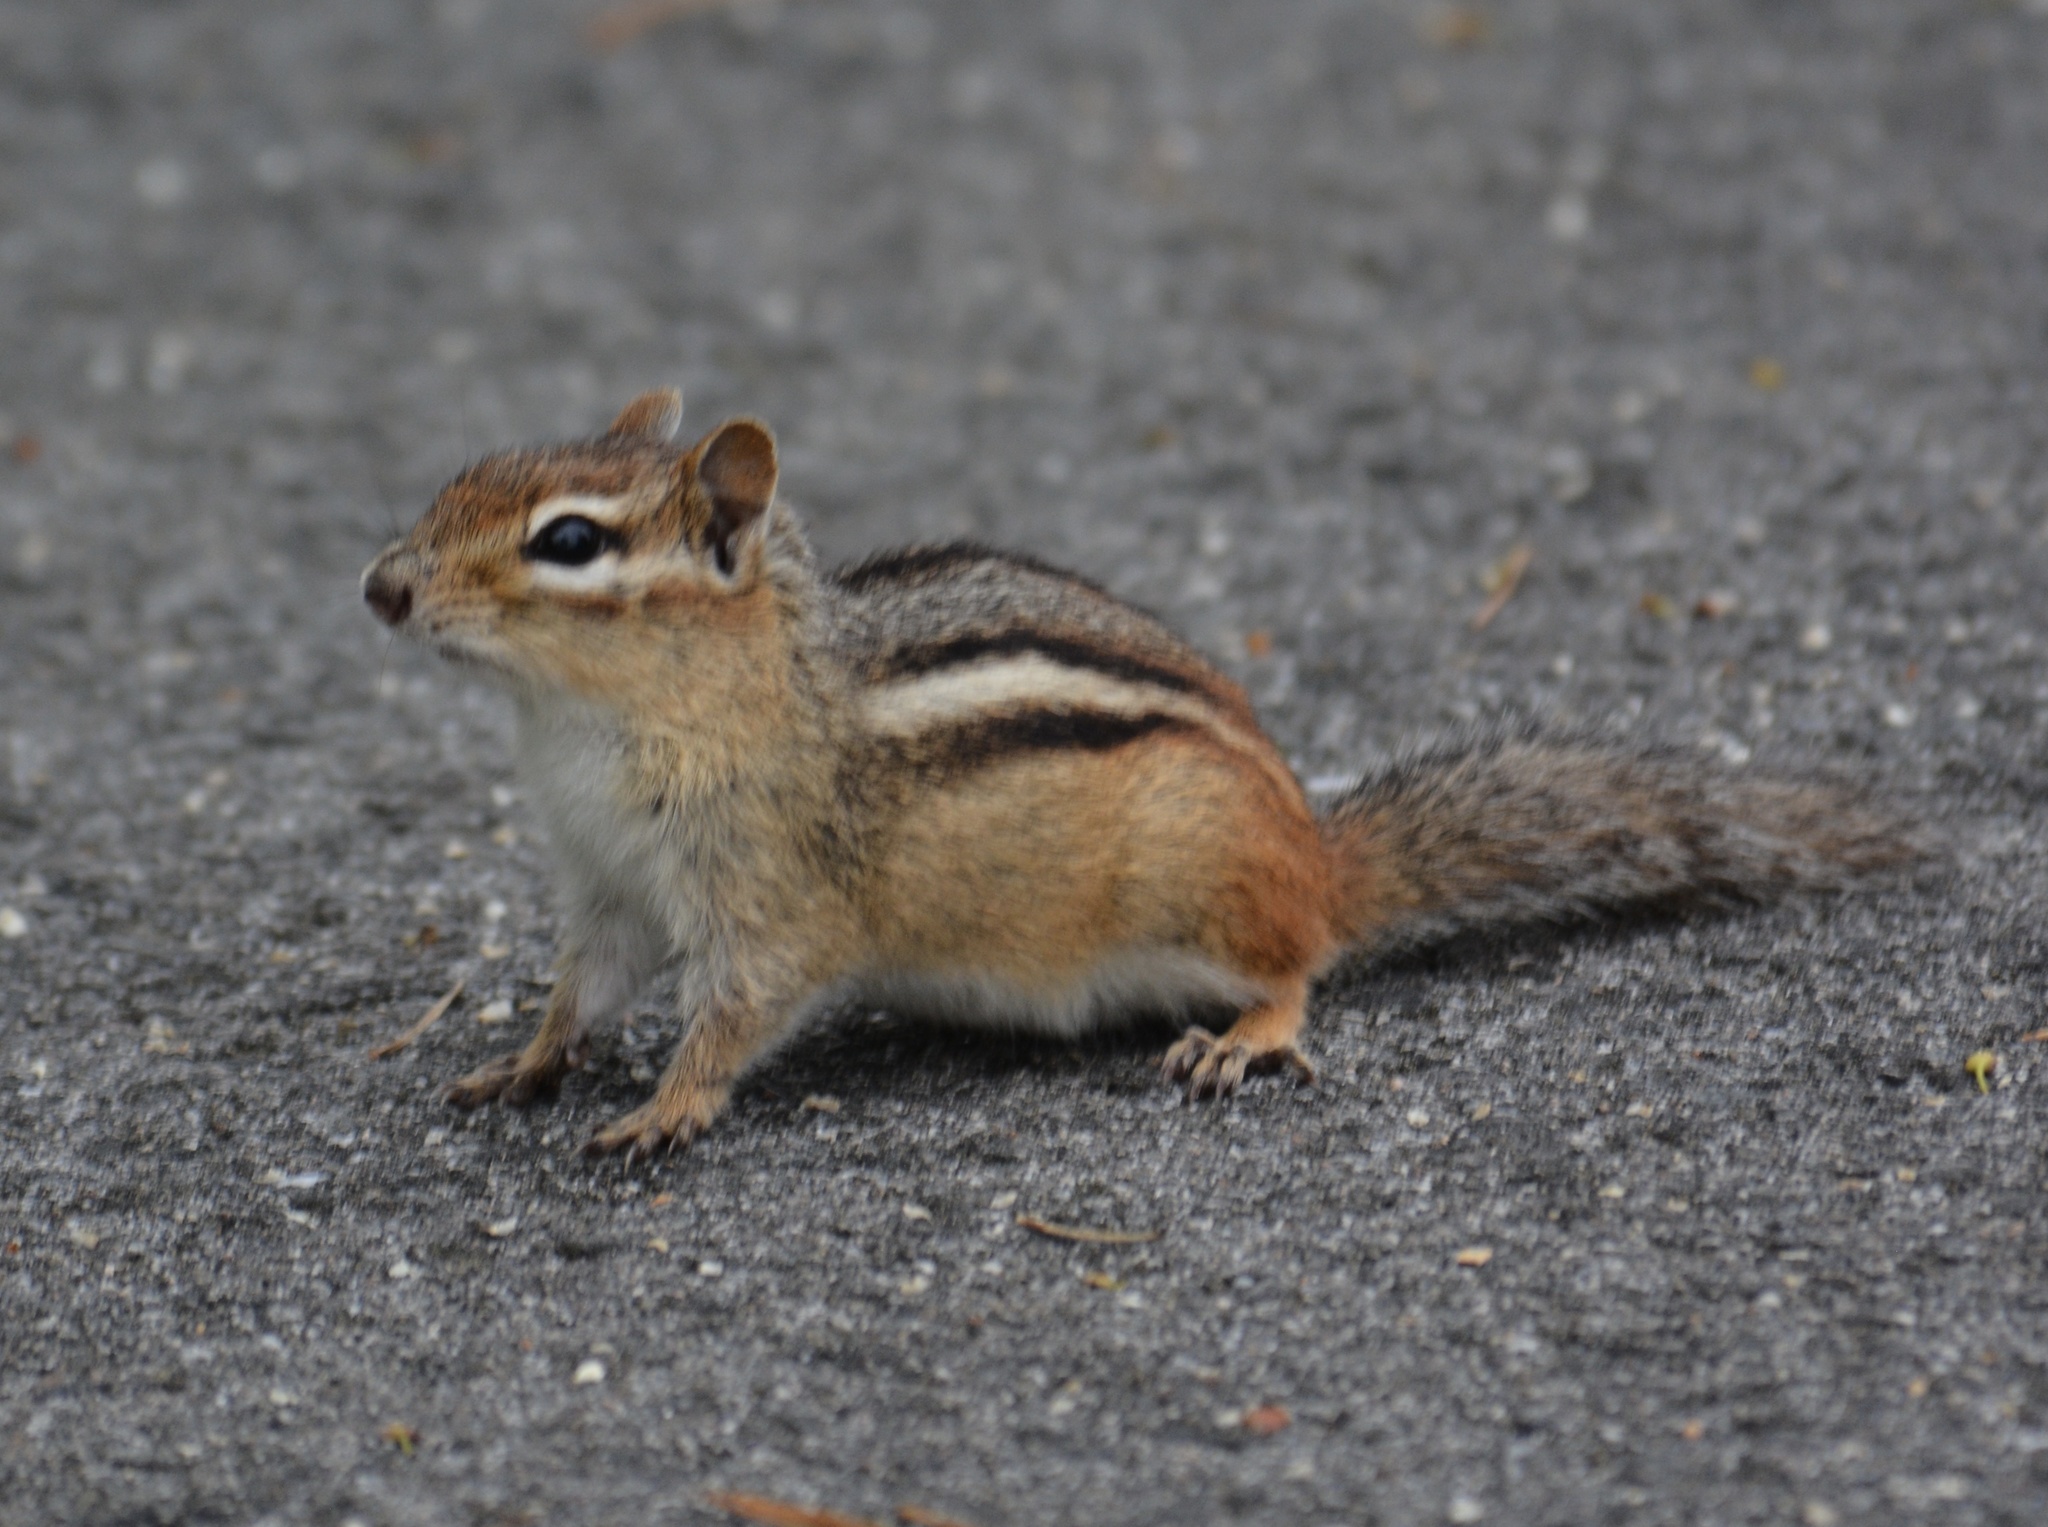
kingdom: Animalia
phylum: Chordata
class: Mammalia
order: Rodentia
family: Sciuridae
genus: Tamias
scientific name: Tamias striatus
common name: Eastern chipmunk
